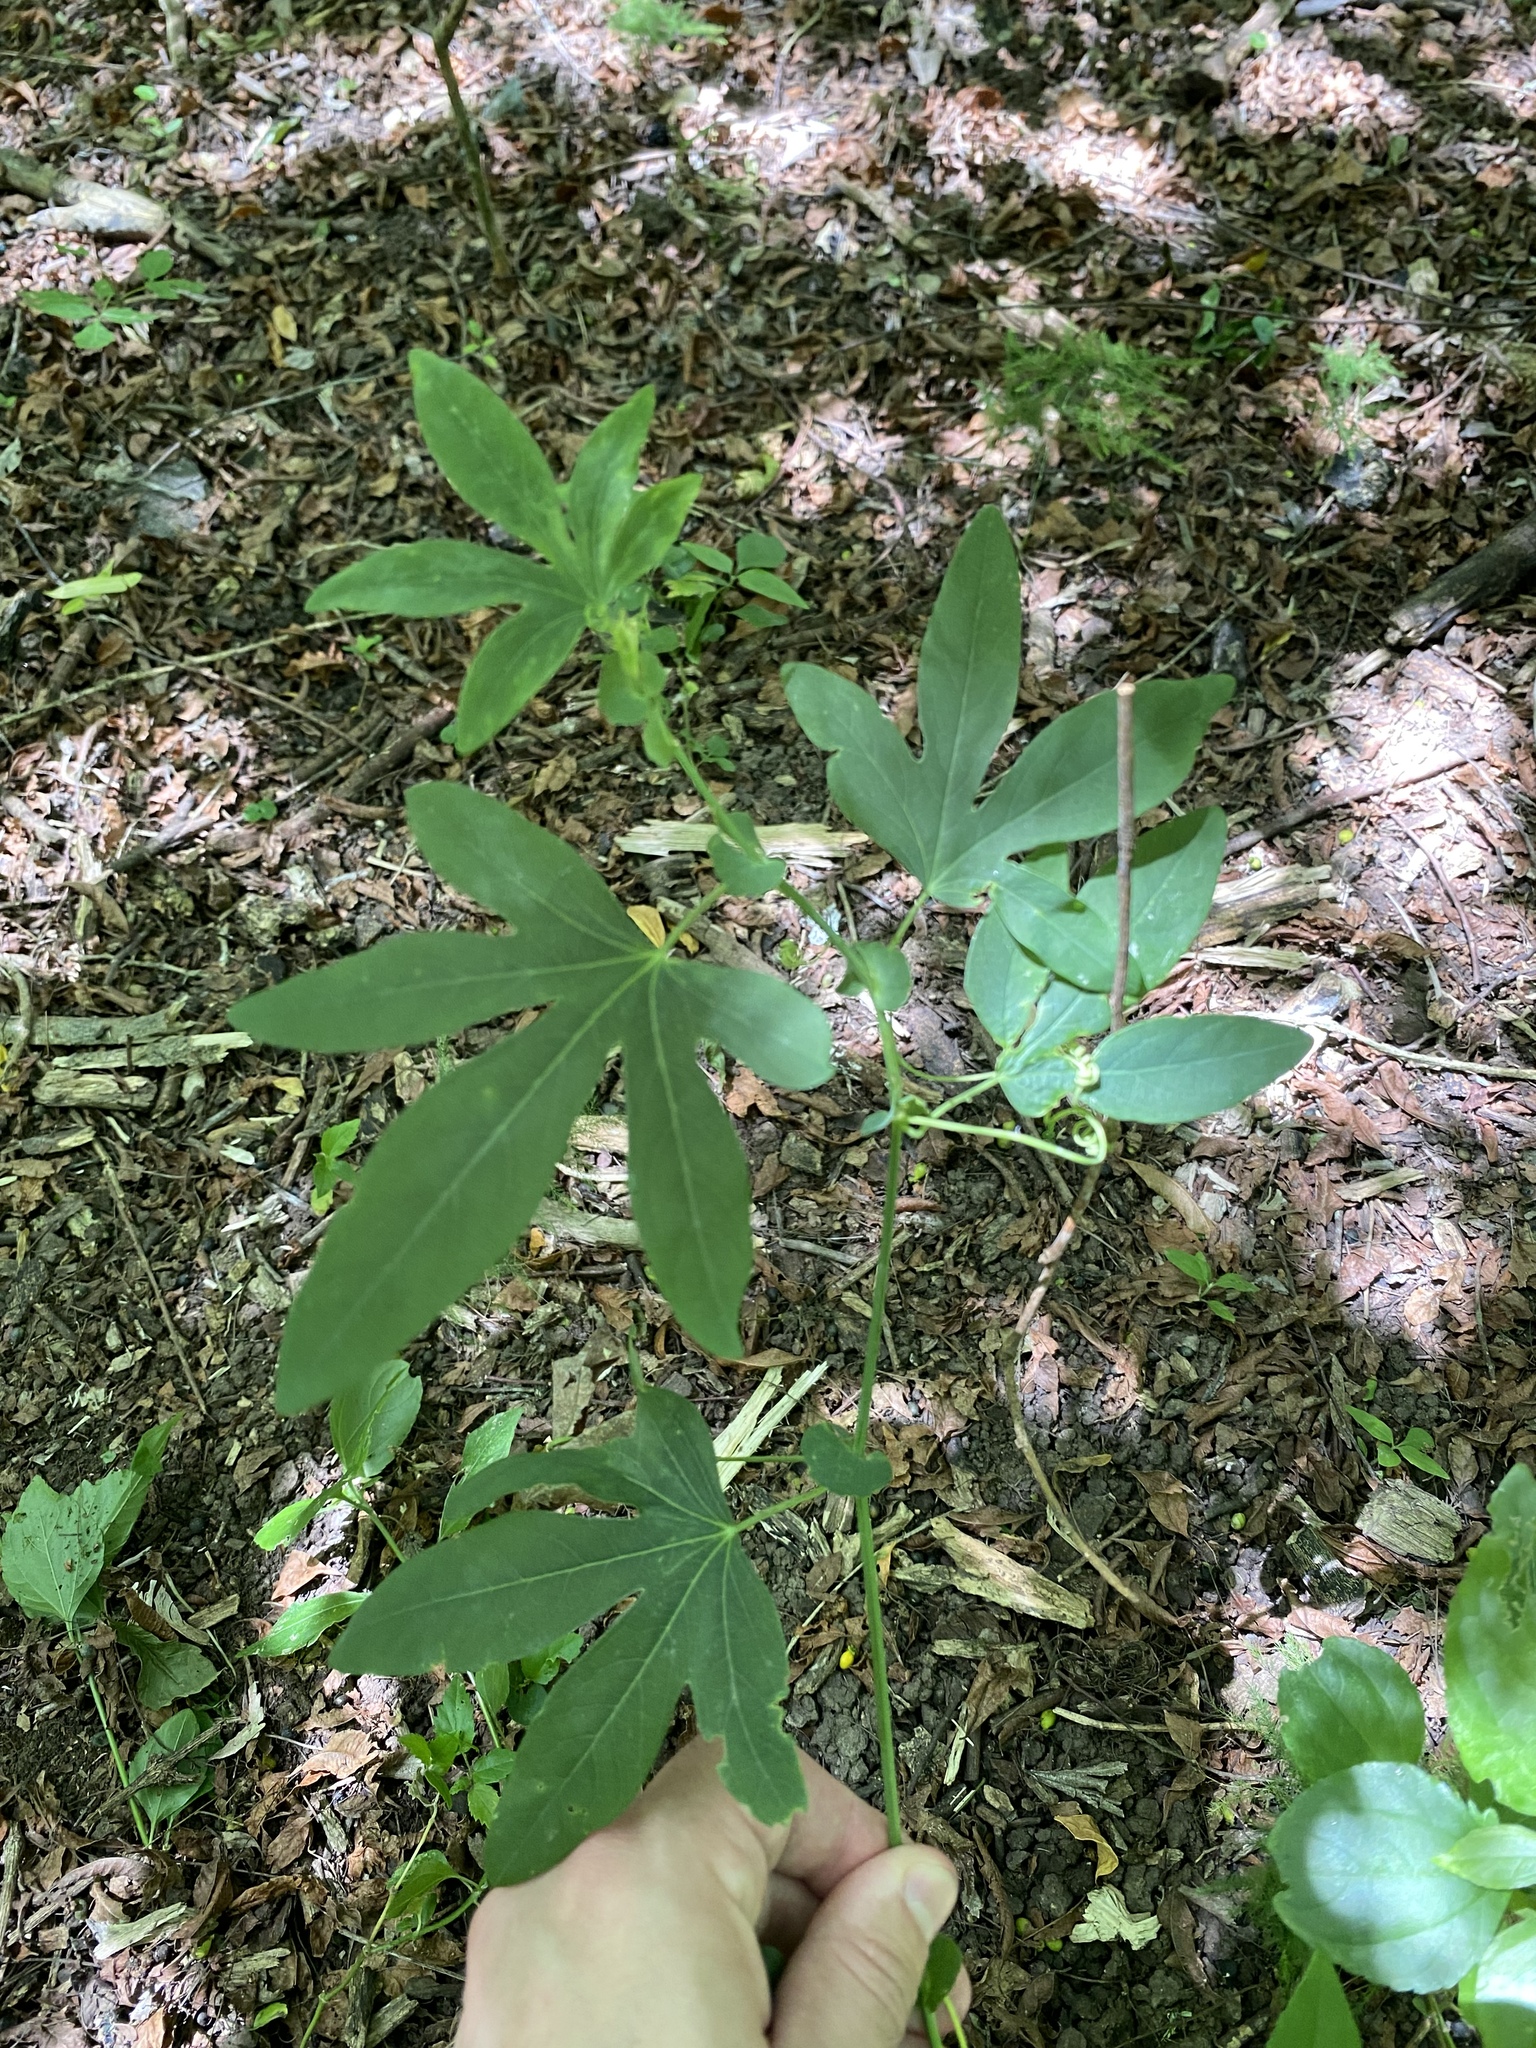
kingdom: Plantae
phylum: Tracheophyta
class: Magnoliopsida
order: Malpighiales
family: Passifloraceae
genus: Passiflora
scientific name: Passiflora caerulea
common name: Blue passionflower
